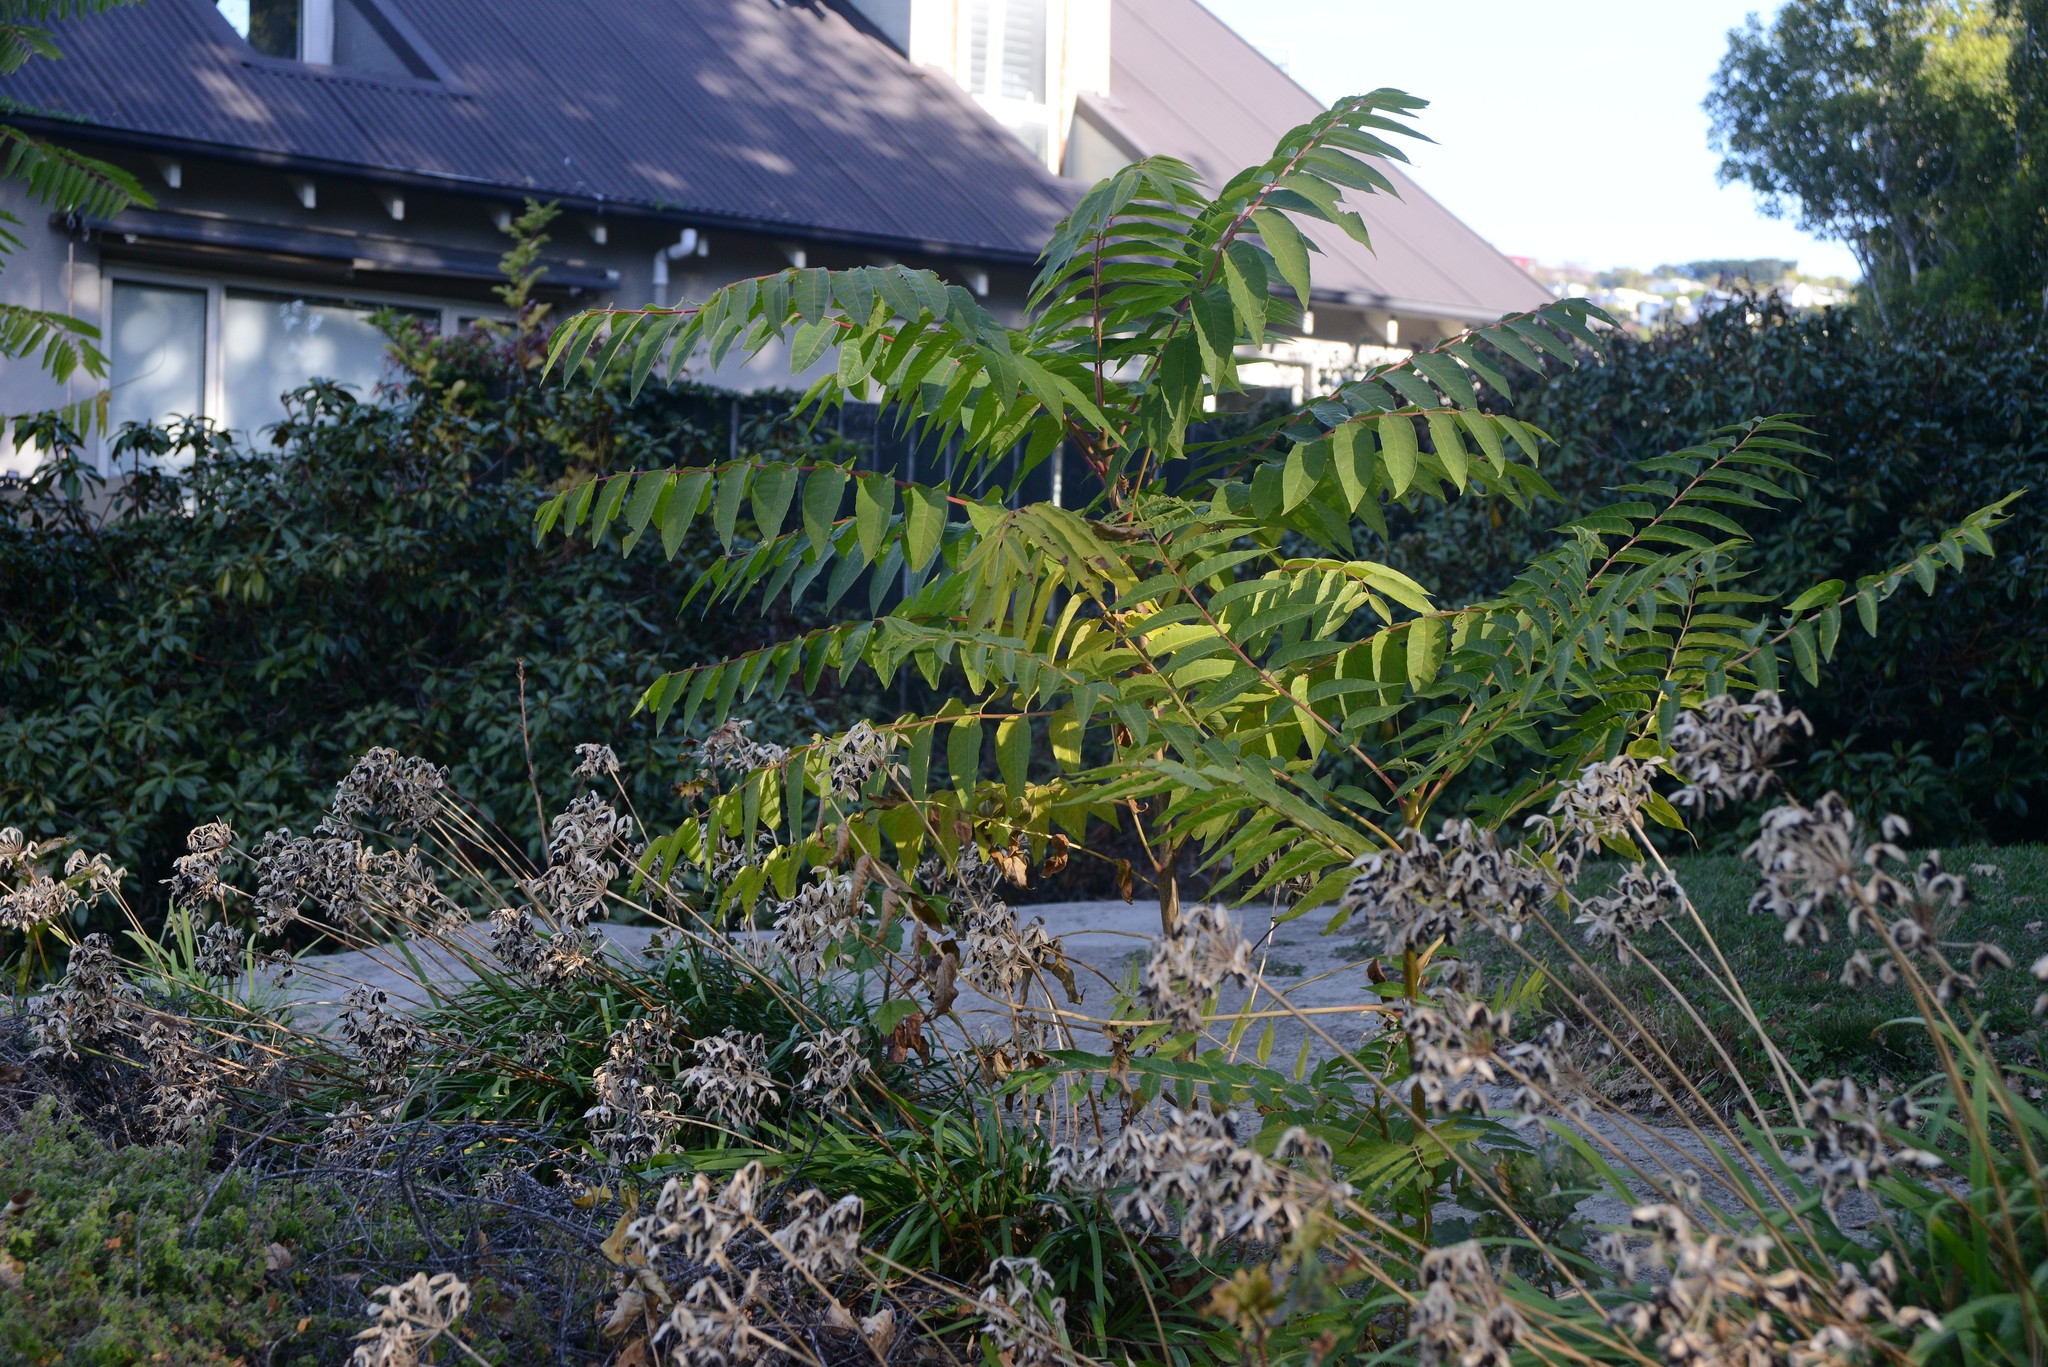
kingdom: Plantae
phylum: Tracheophyta
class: Magnoliopsida
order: Sapindales
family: Simaroubaceae
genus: Ailanthus
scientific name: Ailanthus altissima
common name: Tree-of-heaven
